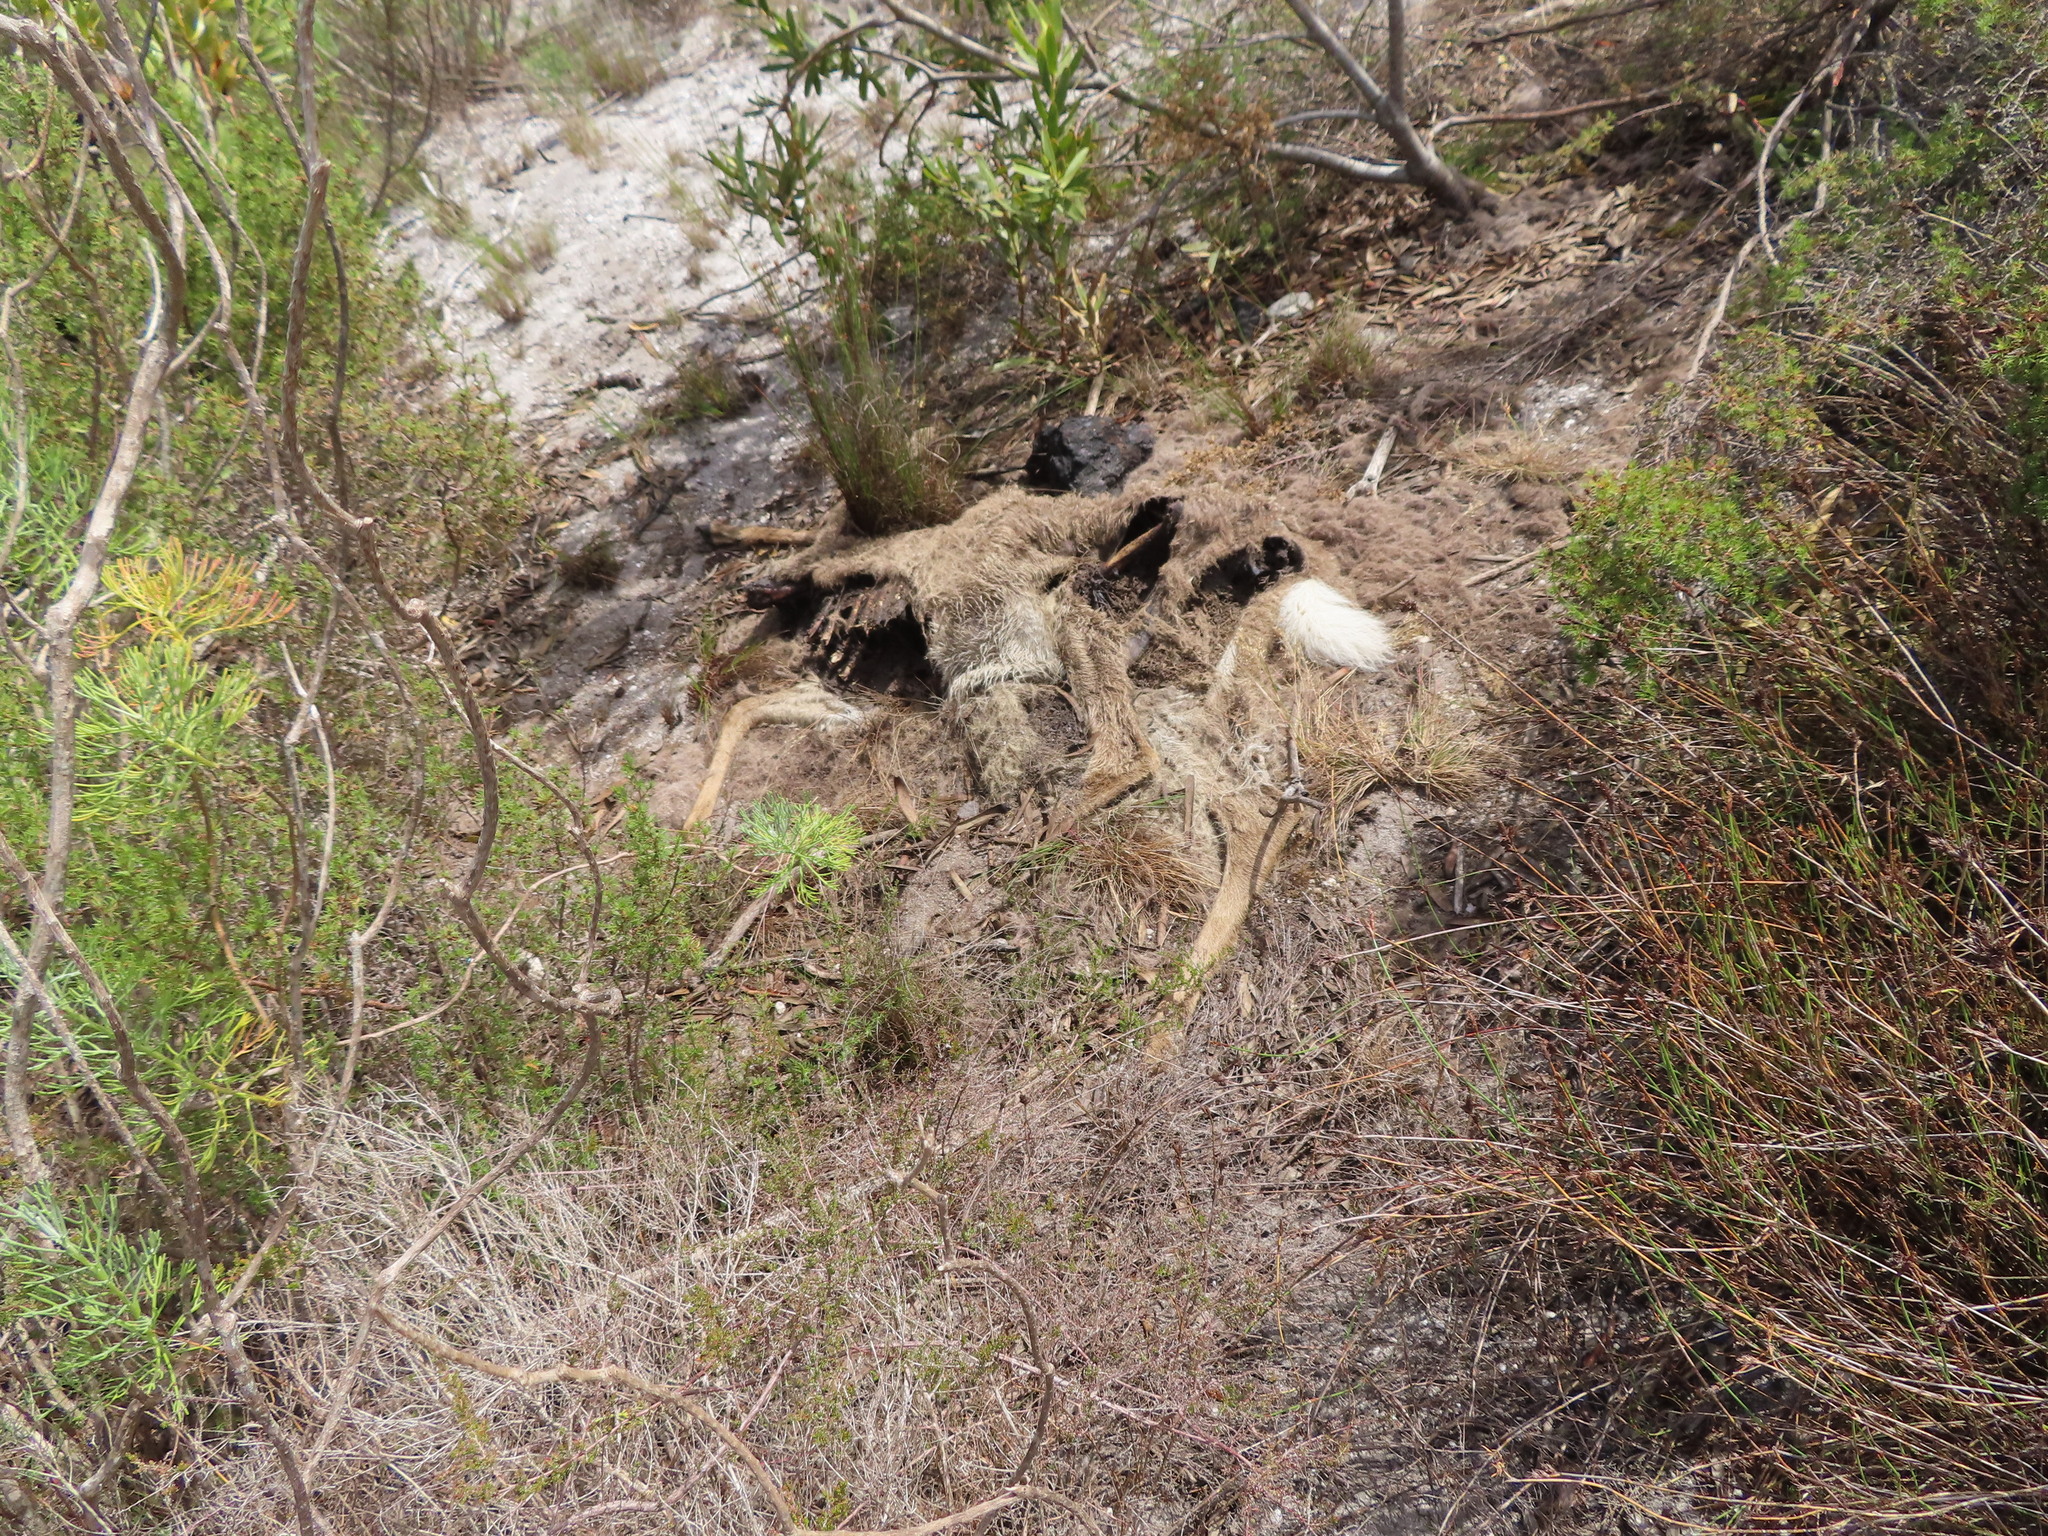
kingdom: Animalia
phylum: Chordata
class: Mammalia
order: Artiodactyla
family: Bovidae
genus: Pelea
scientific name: Pelea capreolus
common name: Common rhebok
